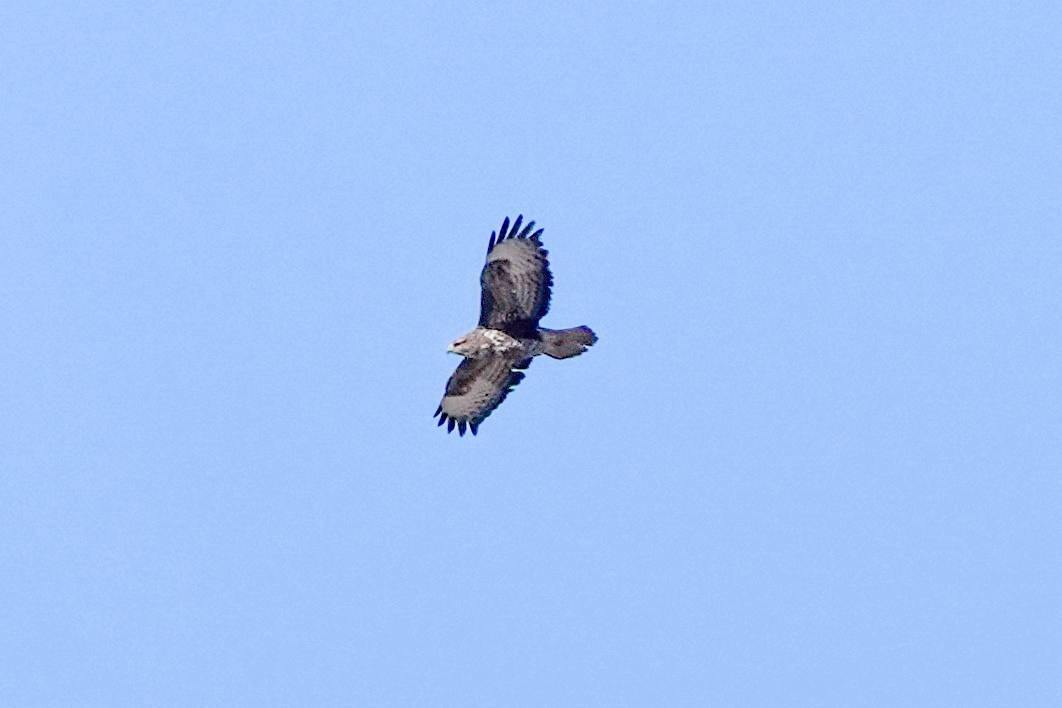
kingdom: Animalia
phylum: Chordata
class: Aves
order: Accipitriformes
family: Accipitridae
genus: Buteo
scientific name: Buteo buteo
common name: Common buzzard
